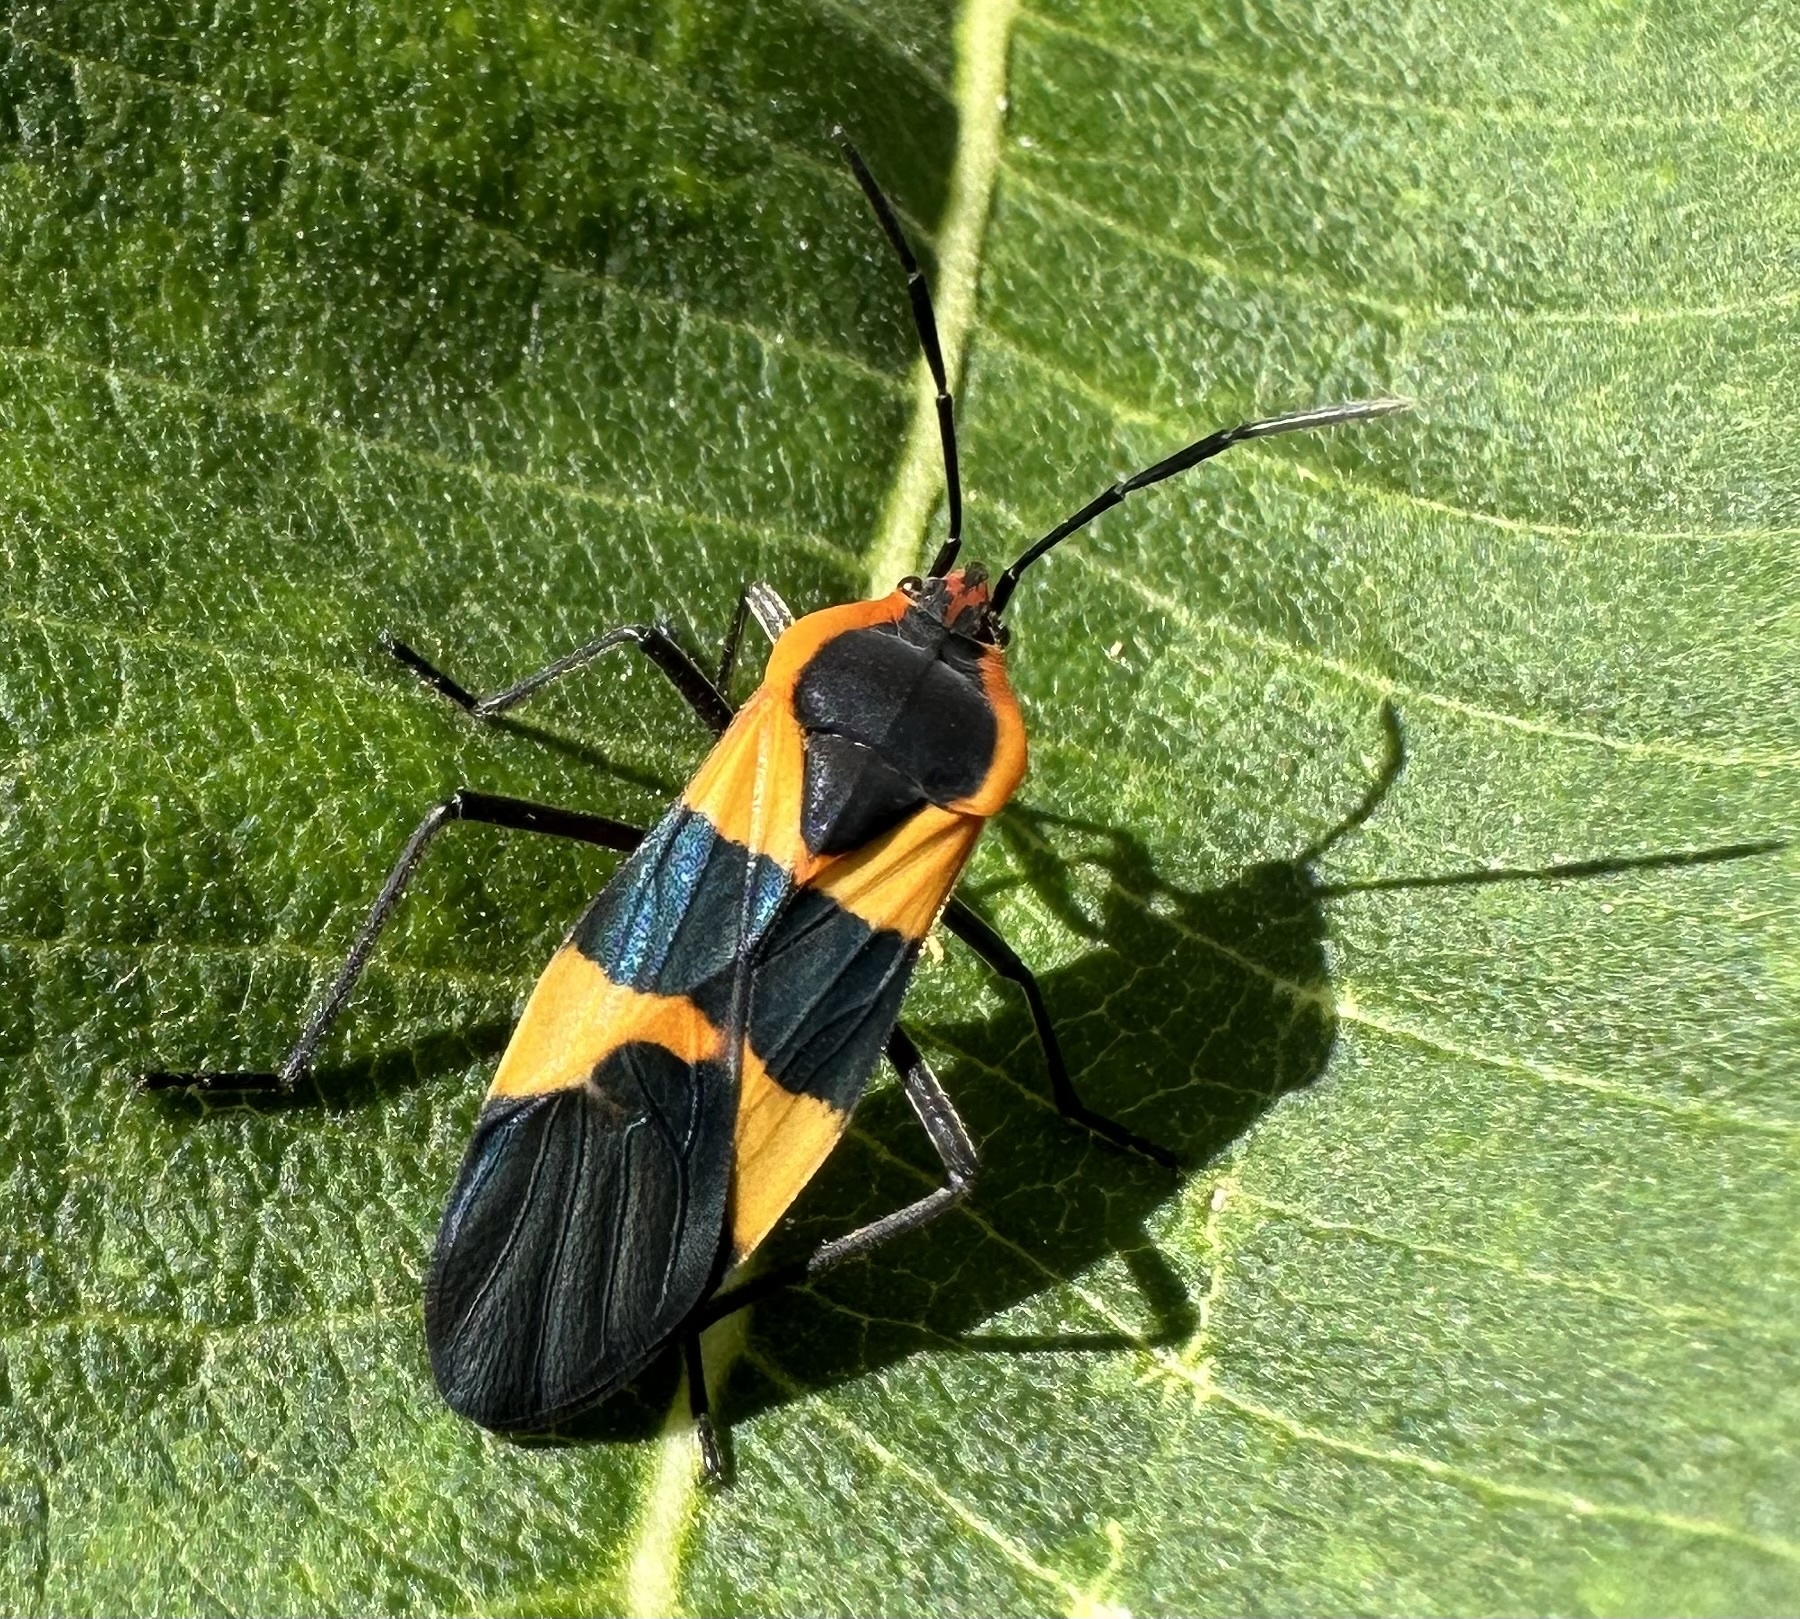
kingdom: Animalia
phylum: Arthropoda
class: Insecta
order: Hemiptera
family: Lygaeidae
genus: Oncopeltus
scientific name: Oncopeltus fasciatus
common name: Large milkweed bug
